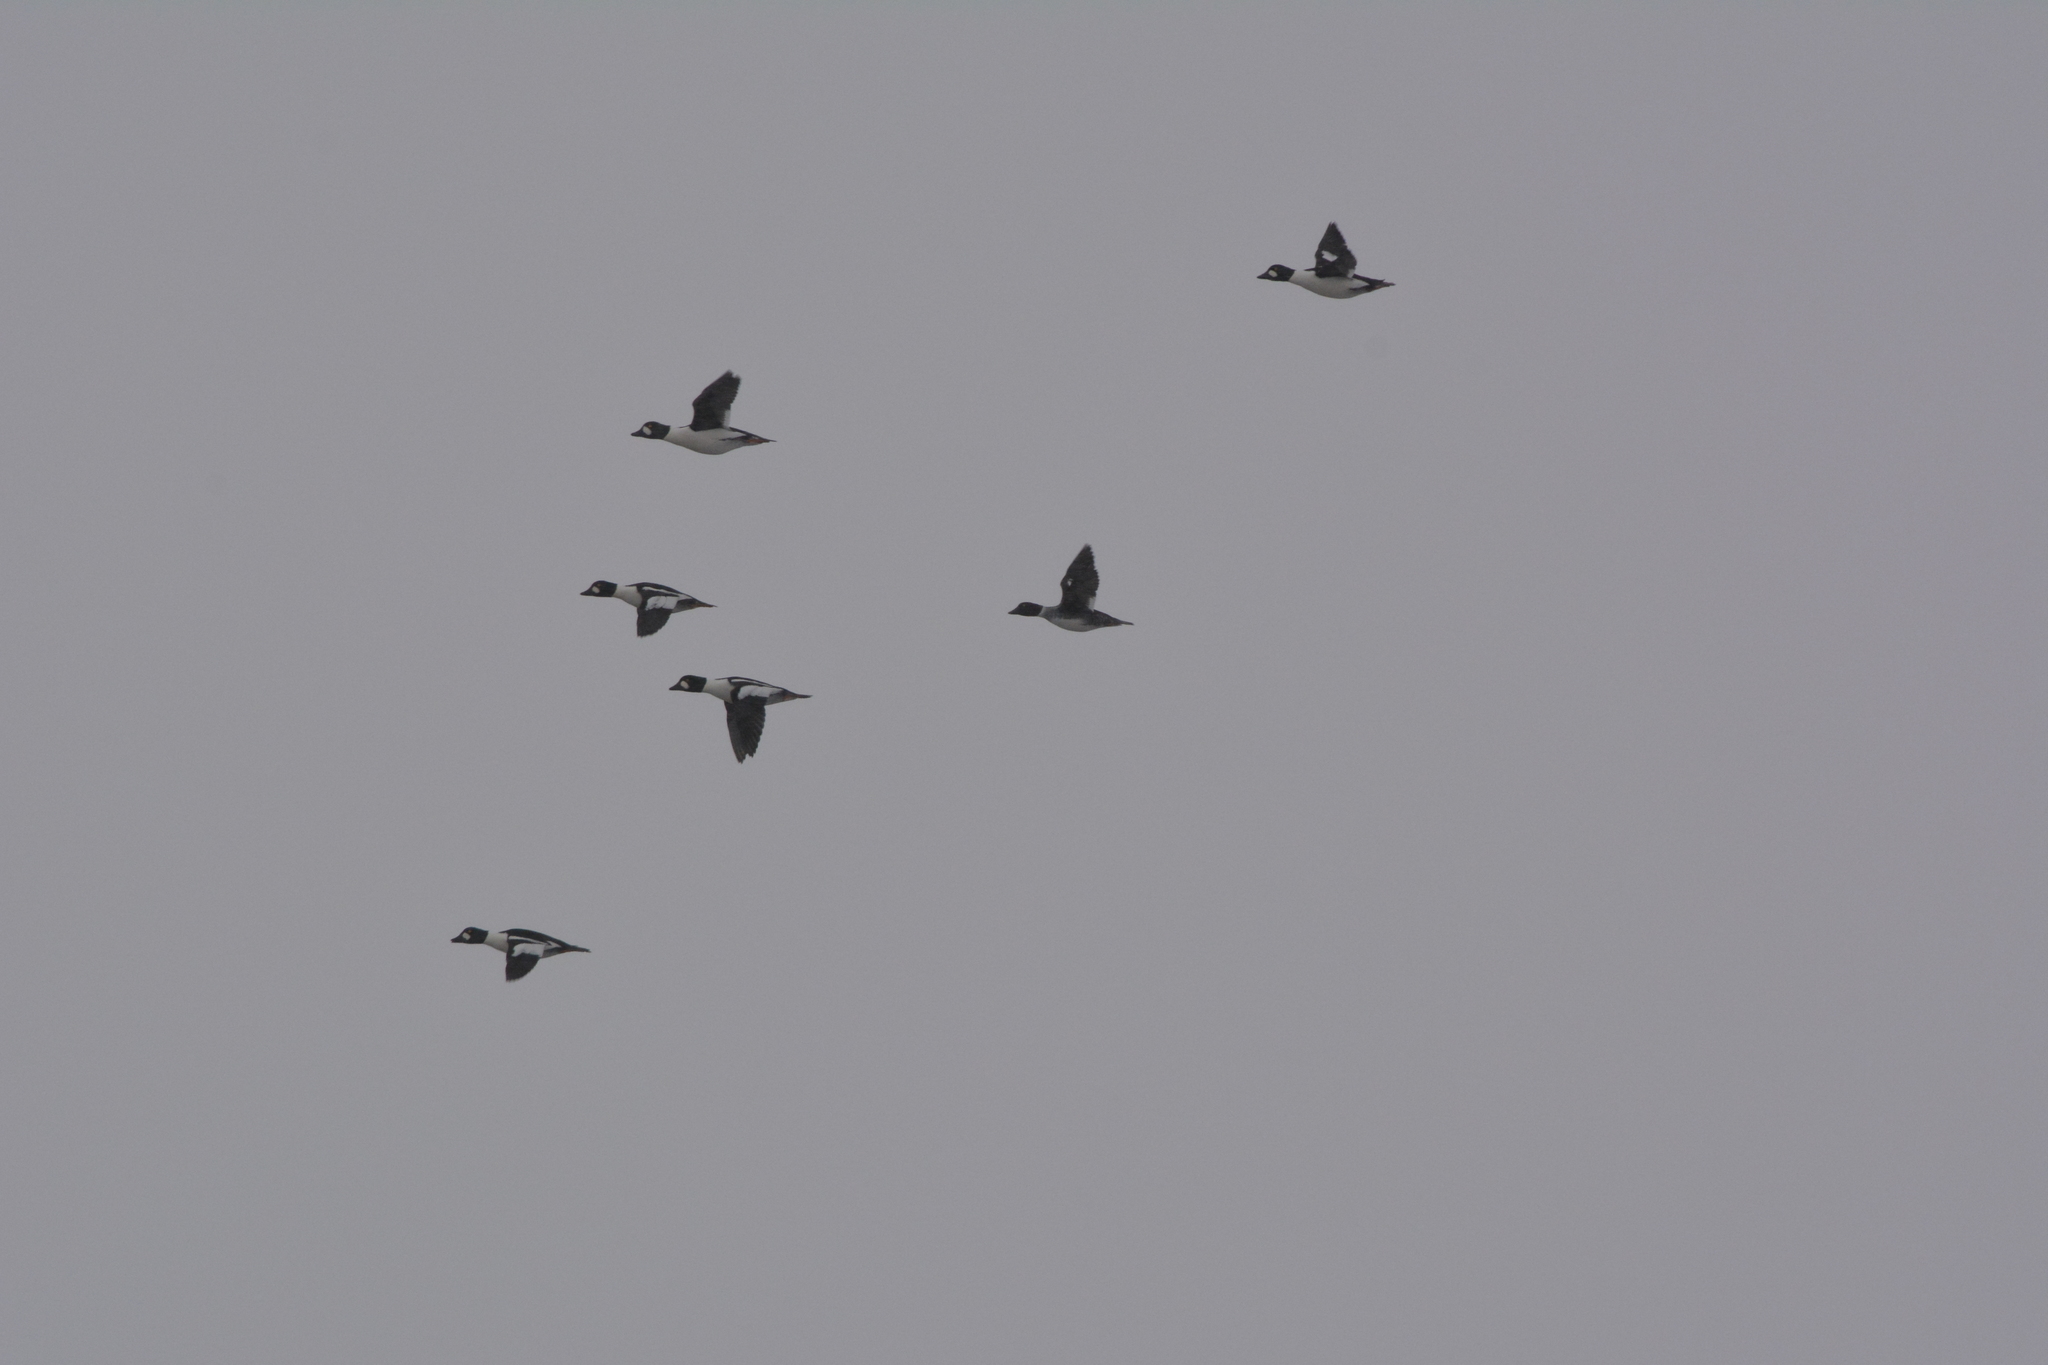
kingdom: Animalia
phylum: Chordata
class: Aves
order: Anseriformes
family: Anatidae
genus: Bucephala
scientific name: Bucephala clangula
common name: Common goldeneye
